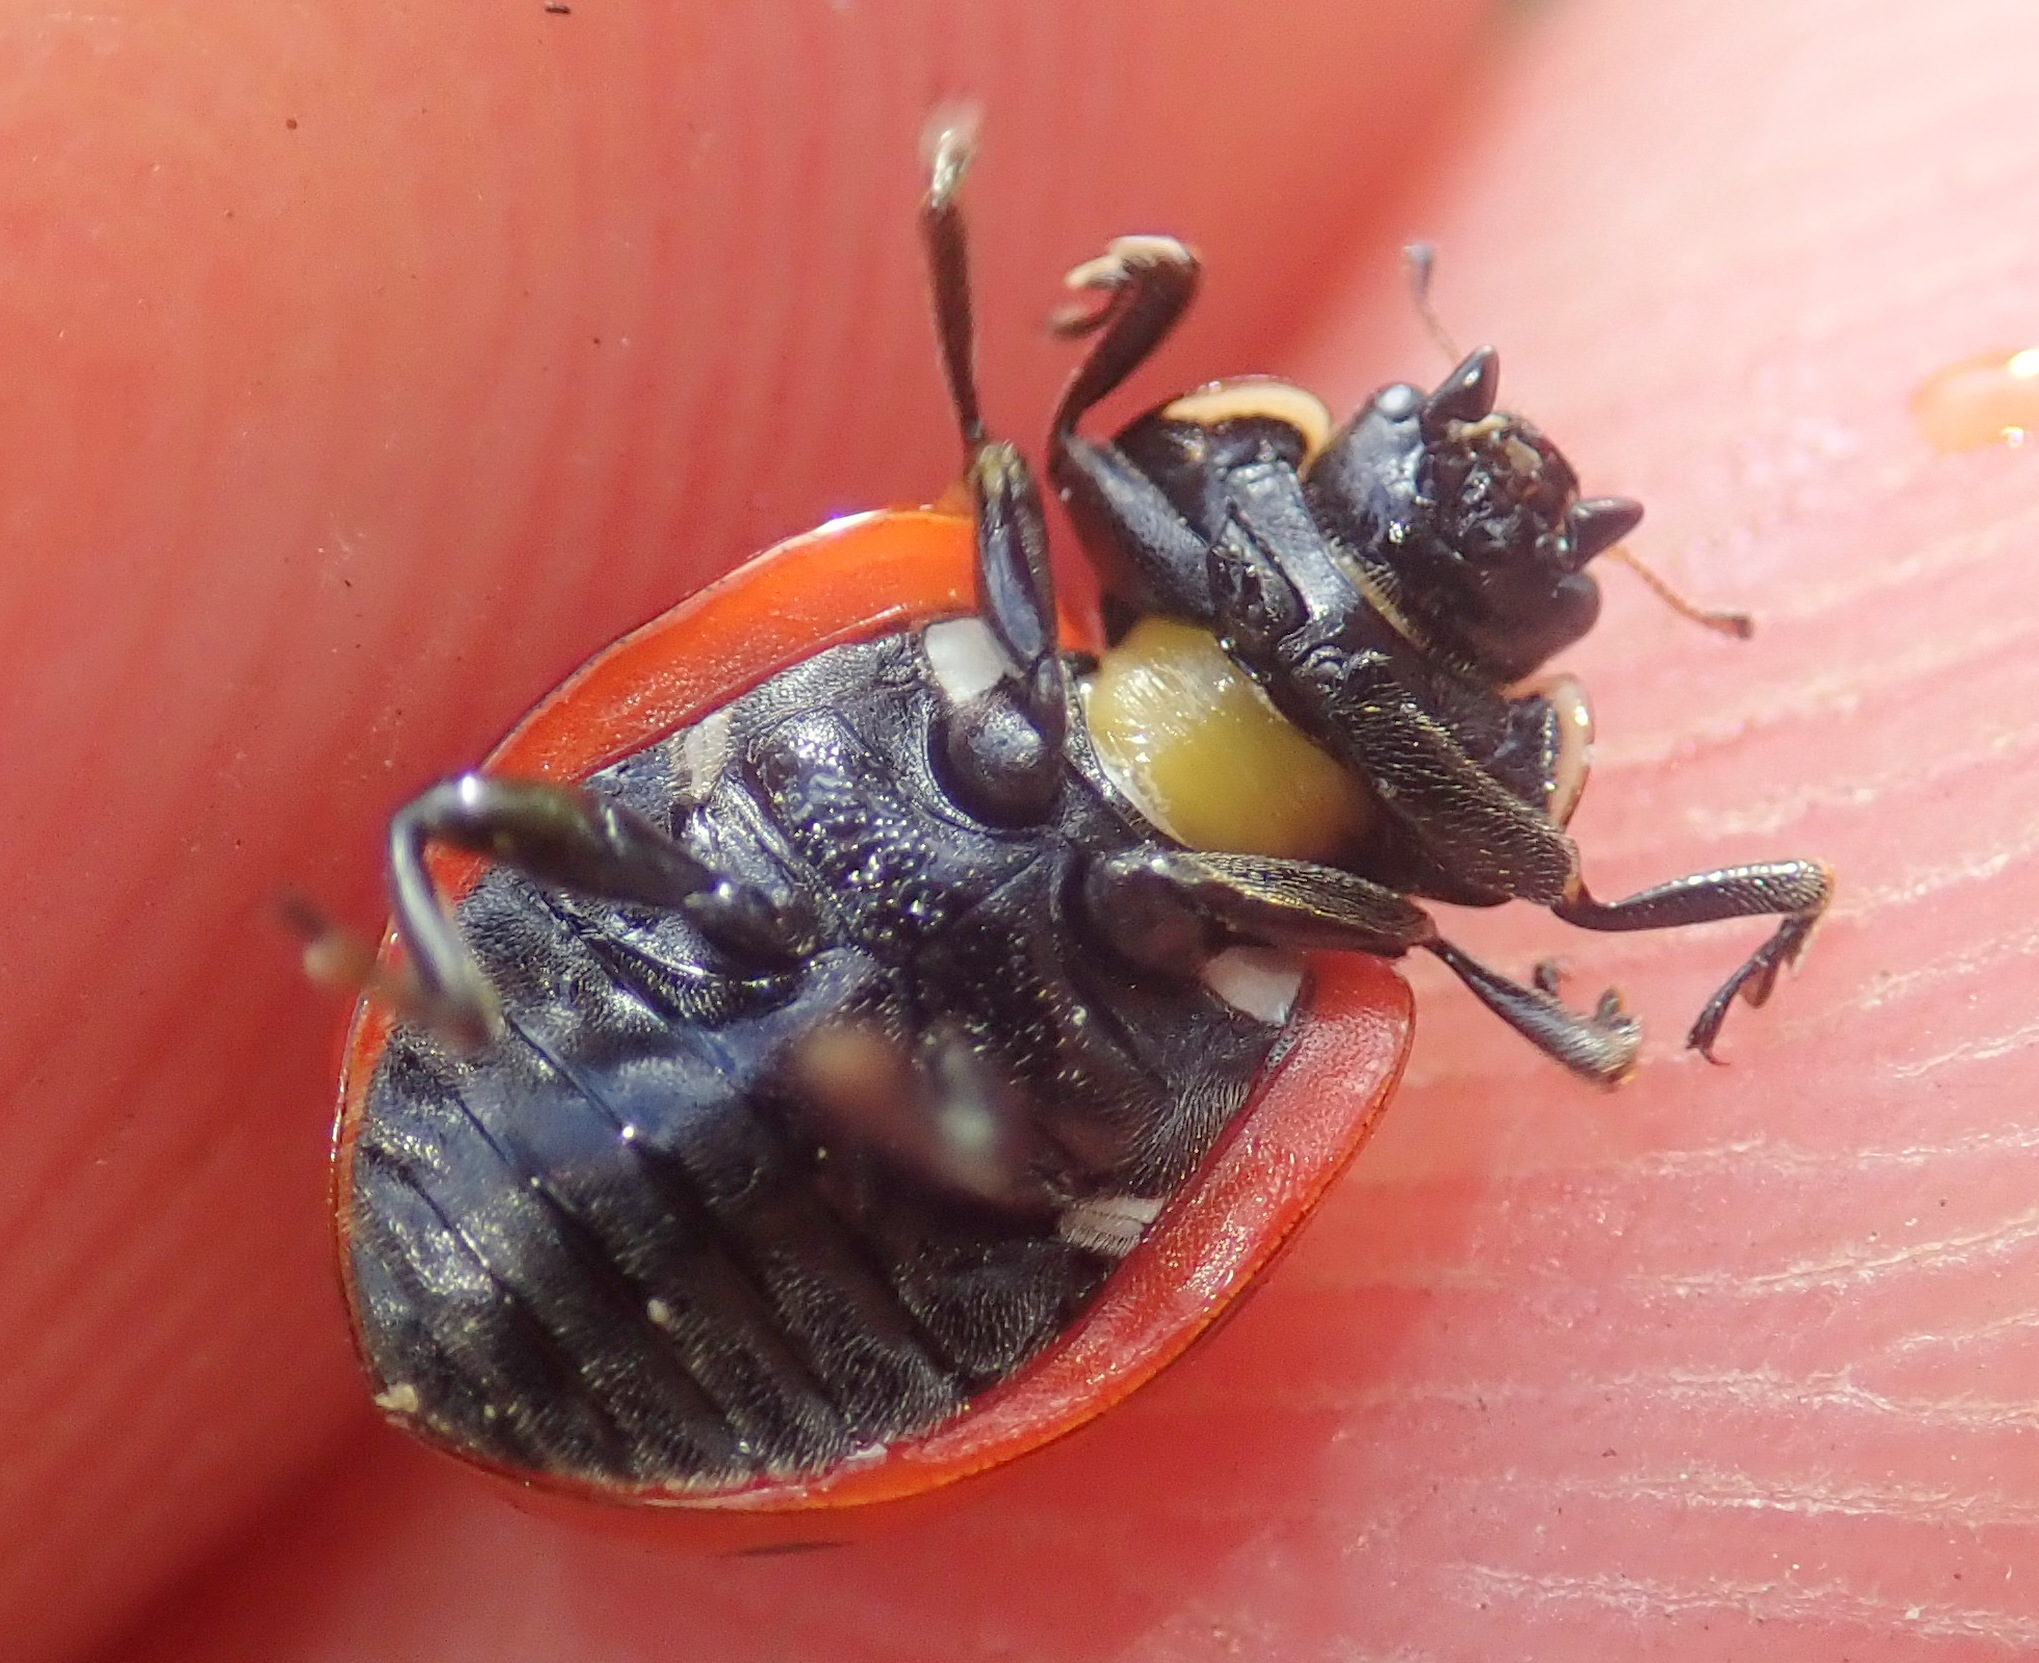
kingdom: Animalia
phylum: Arthropoda
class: Insecta
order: Coleoptera
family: Coccinellidae
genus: Coccinella
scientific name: Coccinella magnifica
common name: Scarce 7-spot ladybird
